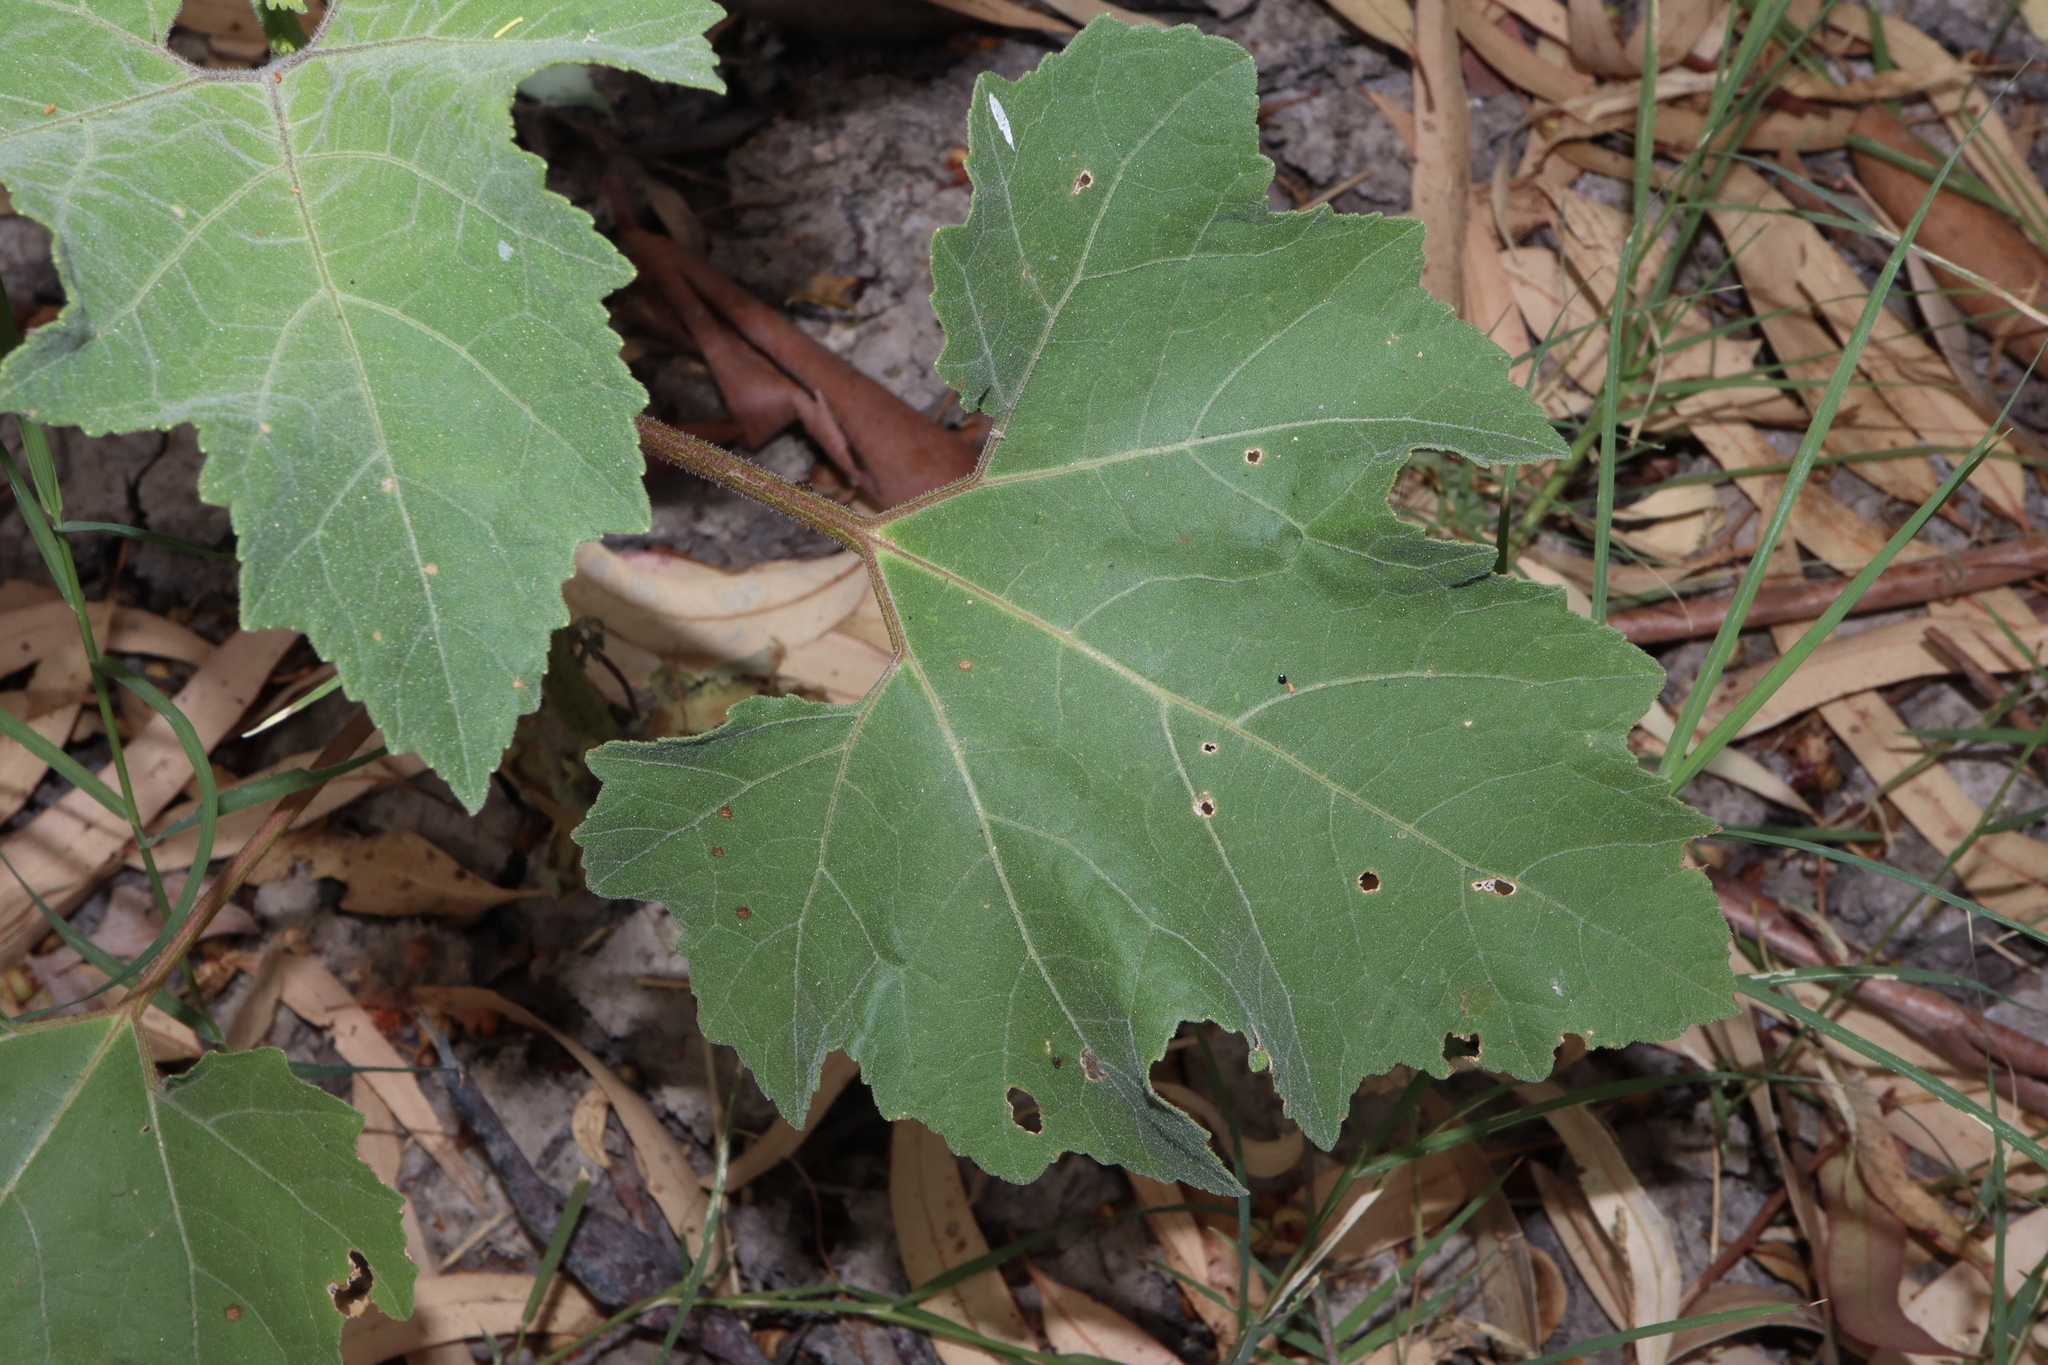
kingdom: Plantae
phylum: Tracheophyta
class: Magnoliopsida
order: Asterales
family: Asteraceae
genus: Xanthium
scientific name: Xanthium strumarium
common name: Rough cocklebur
